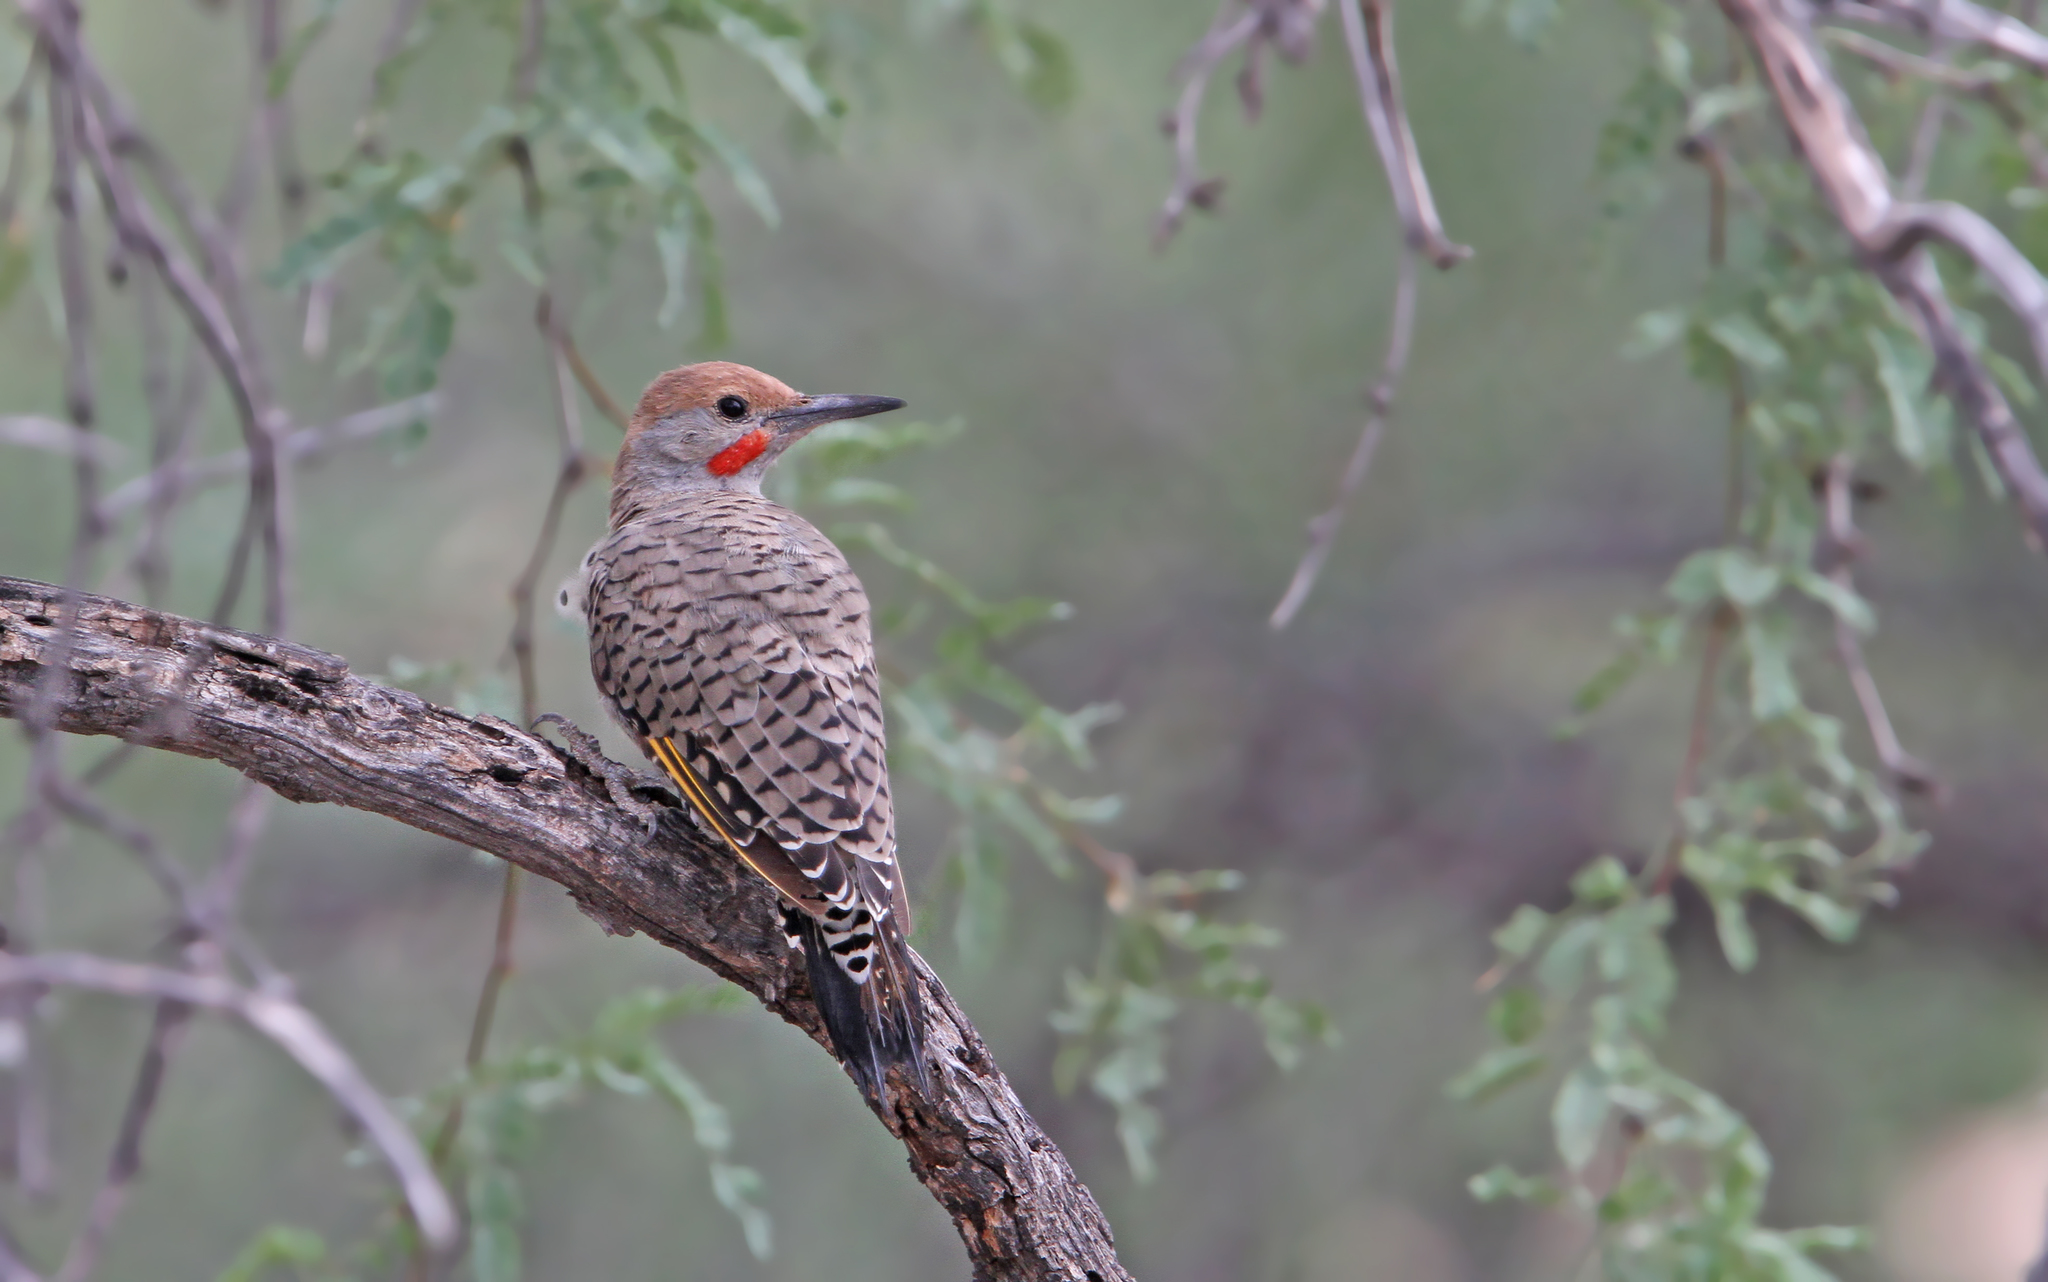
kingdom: Animalia
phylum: Chordata
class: Aves
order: Piciformes
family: Picidae
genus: Colaptes
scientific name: Colaptes chrysoides
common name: Gilded flicker
